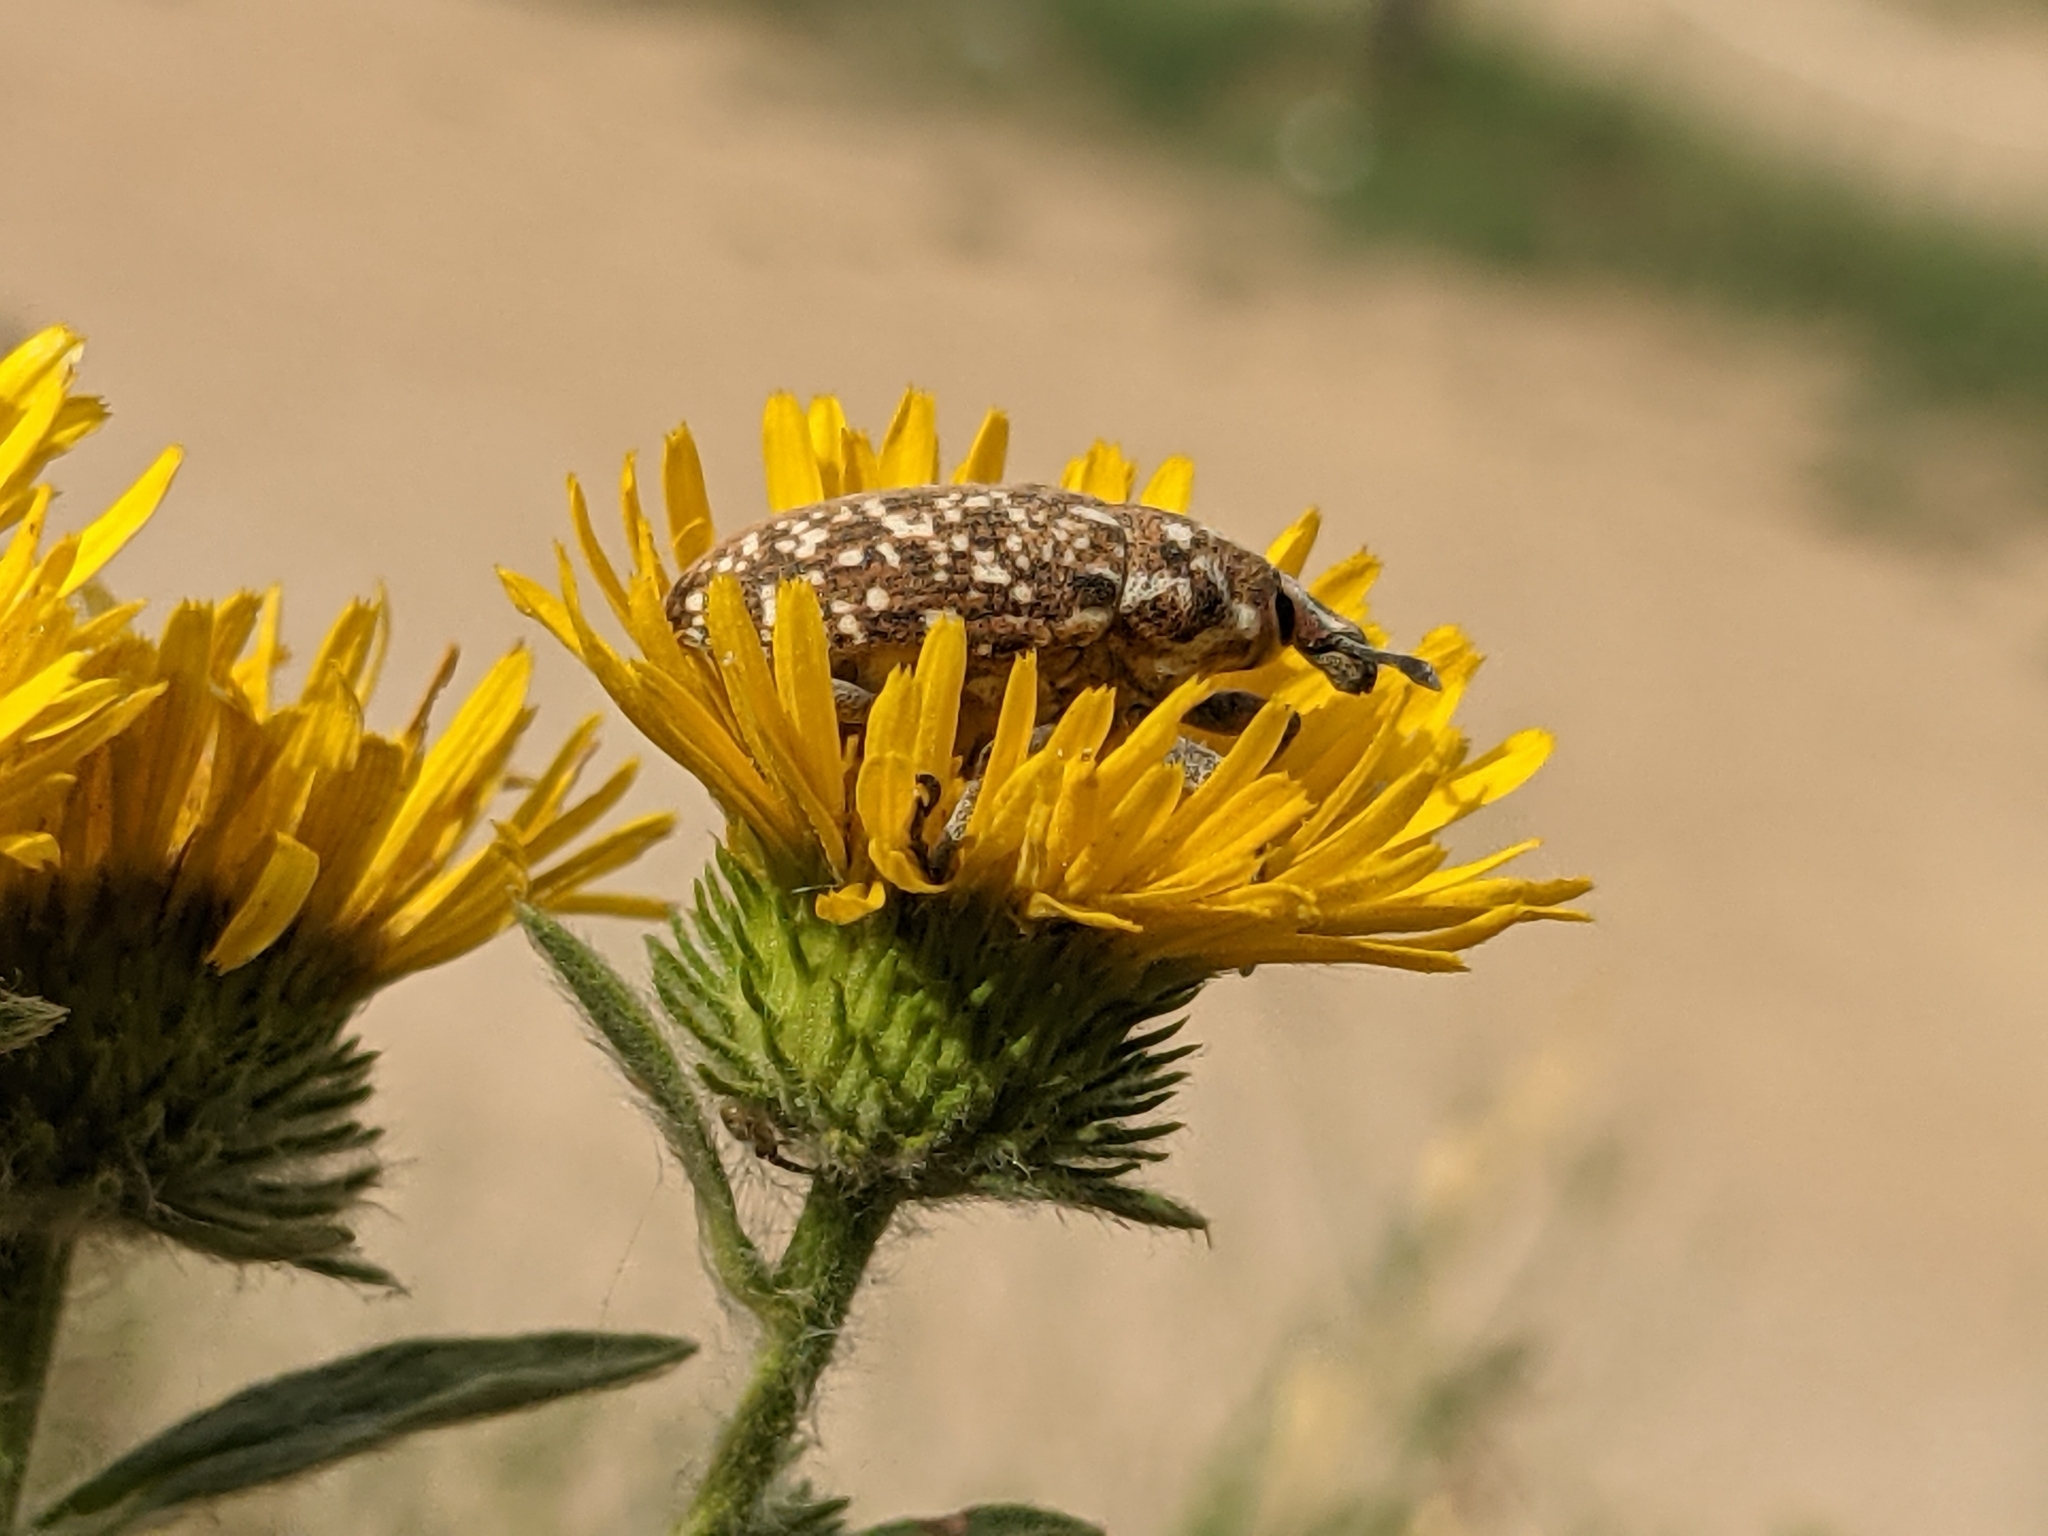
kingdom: Animalia
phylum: Arthropoda
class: Insecta
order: Coleoptera
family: Curculionidae
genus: Cleonus
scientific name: Cleonus tesselatus
